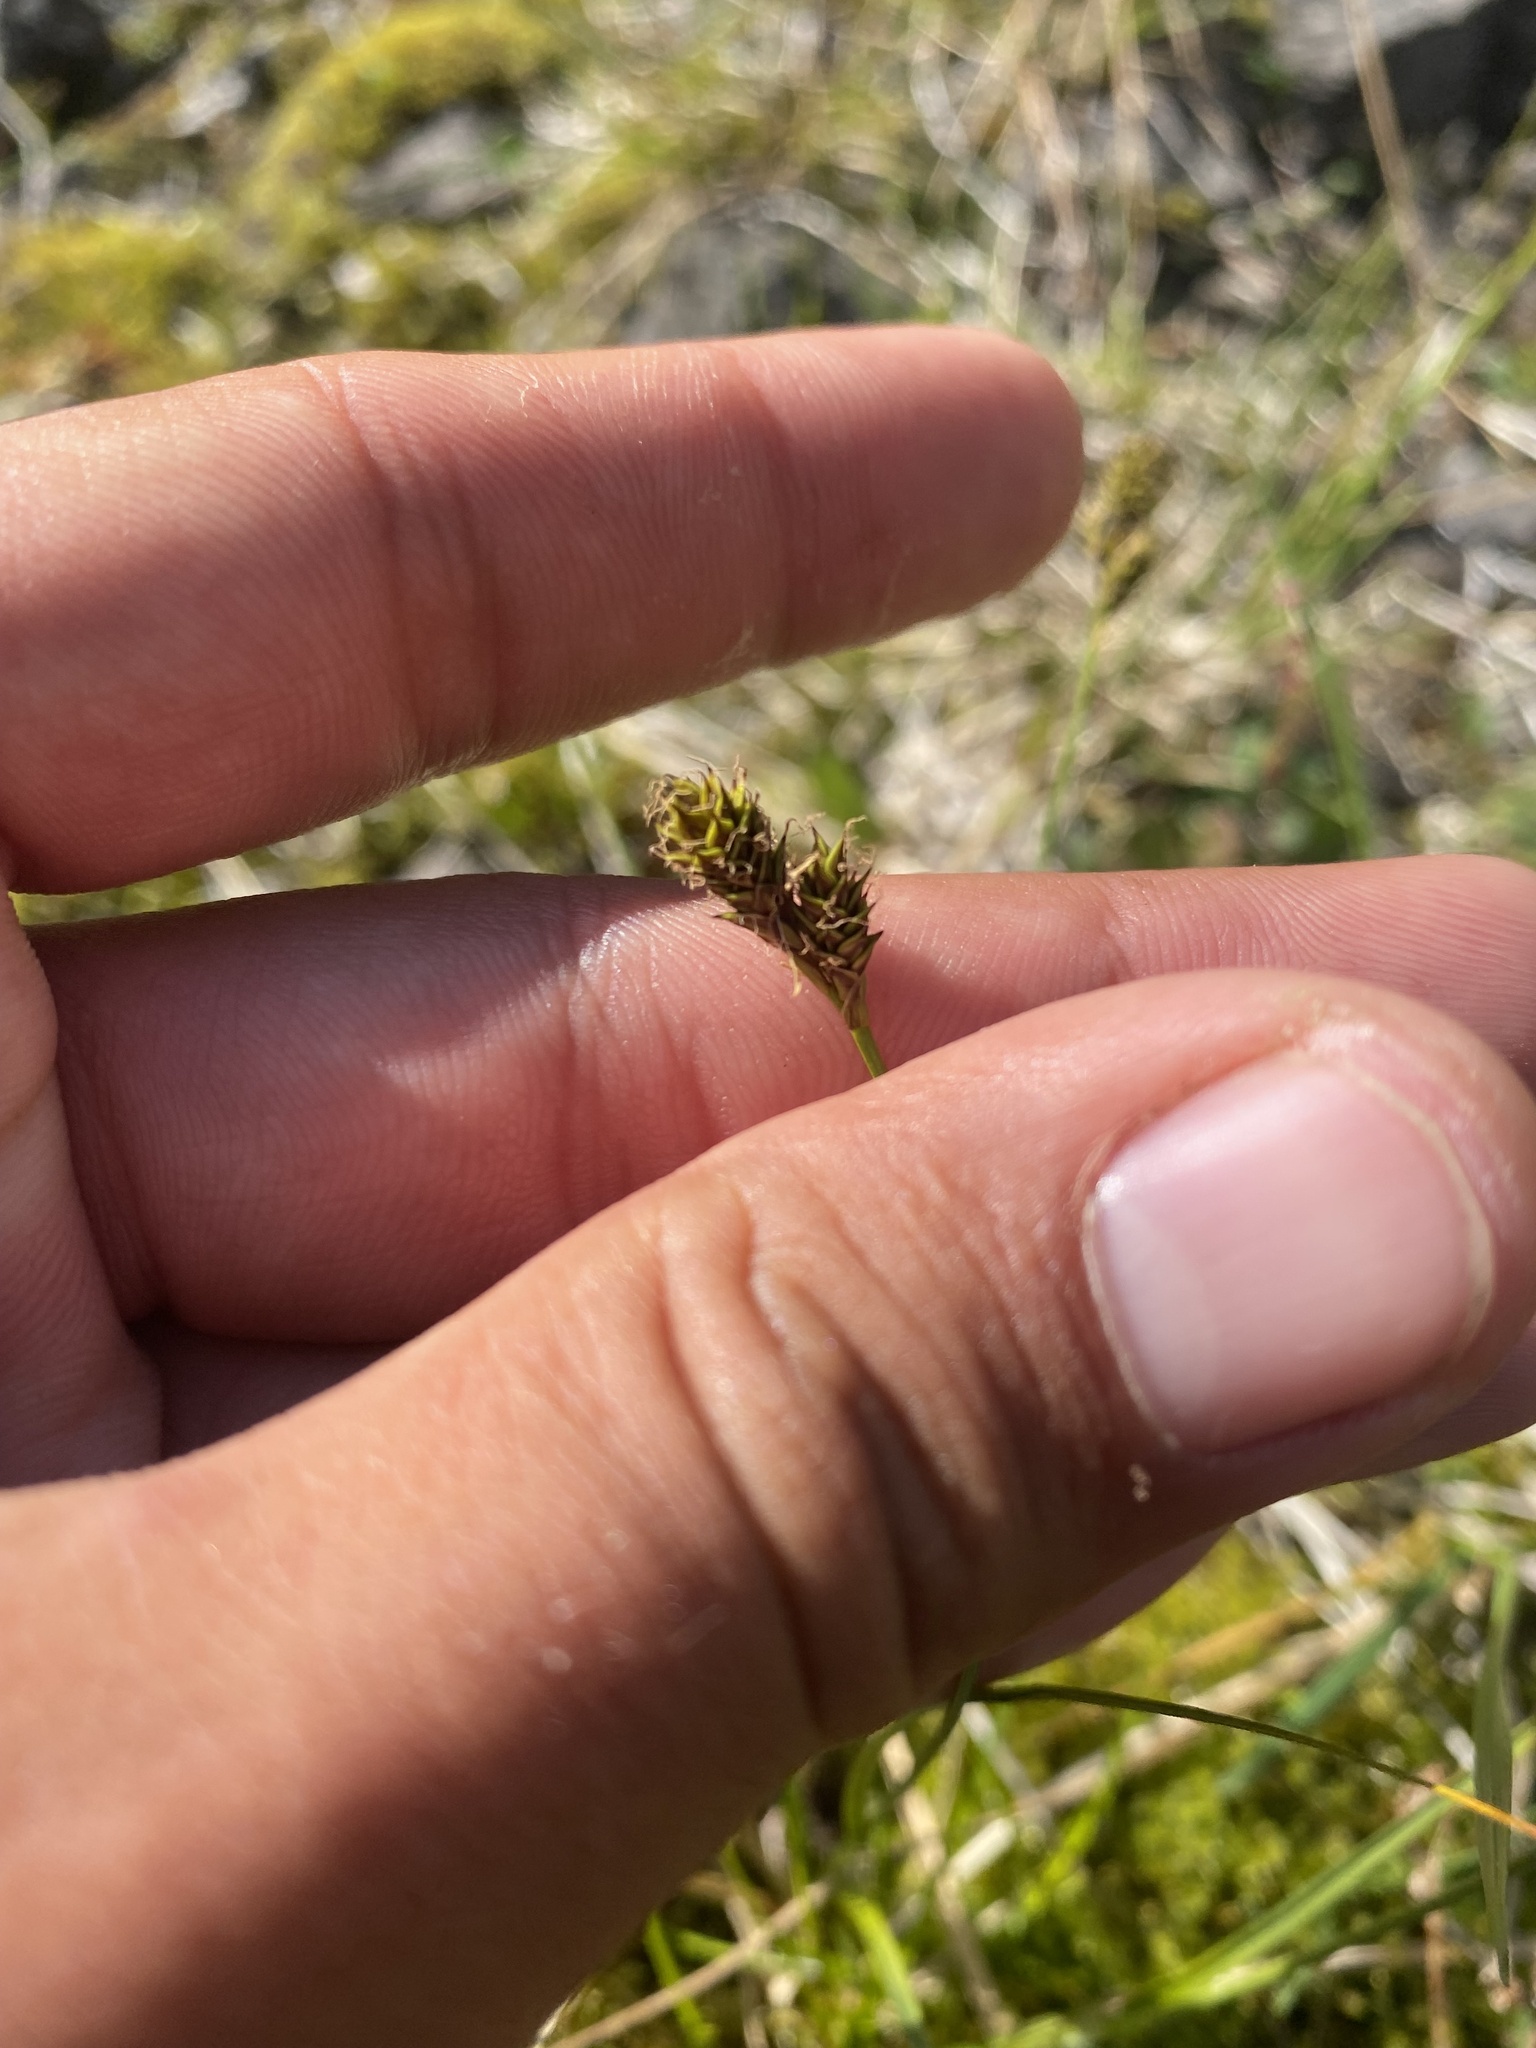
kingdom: Plantae
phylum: Tracheophyta
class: Liliopsida
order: Poales
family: Cyperaceae
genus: Carex
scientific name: Carex lachenalii
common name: Hare's-foot sedge
